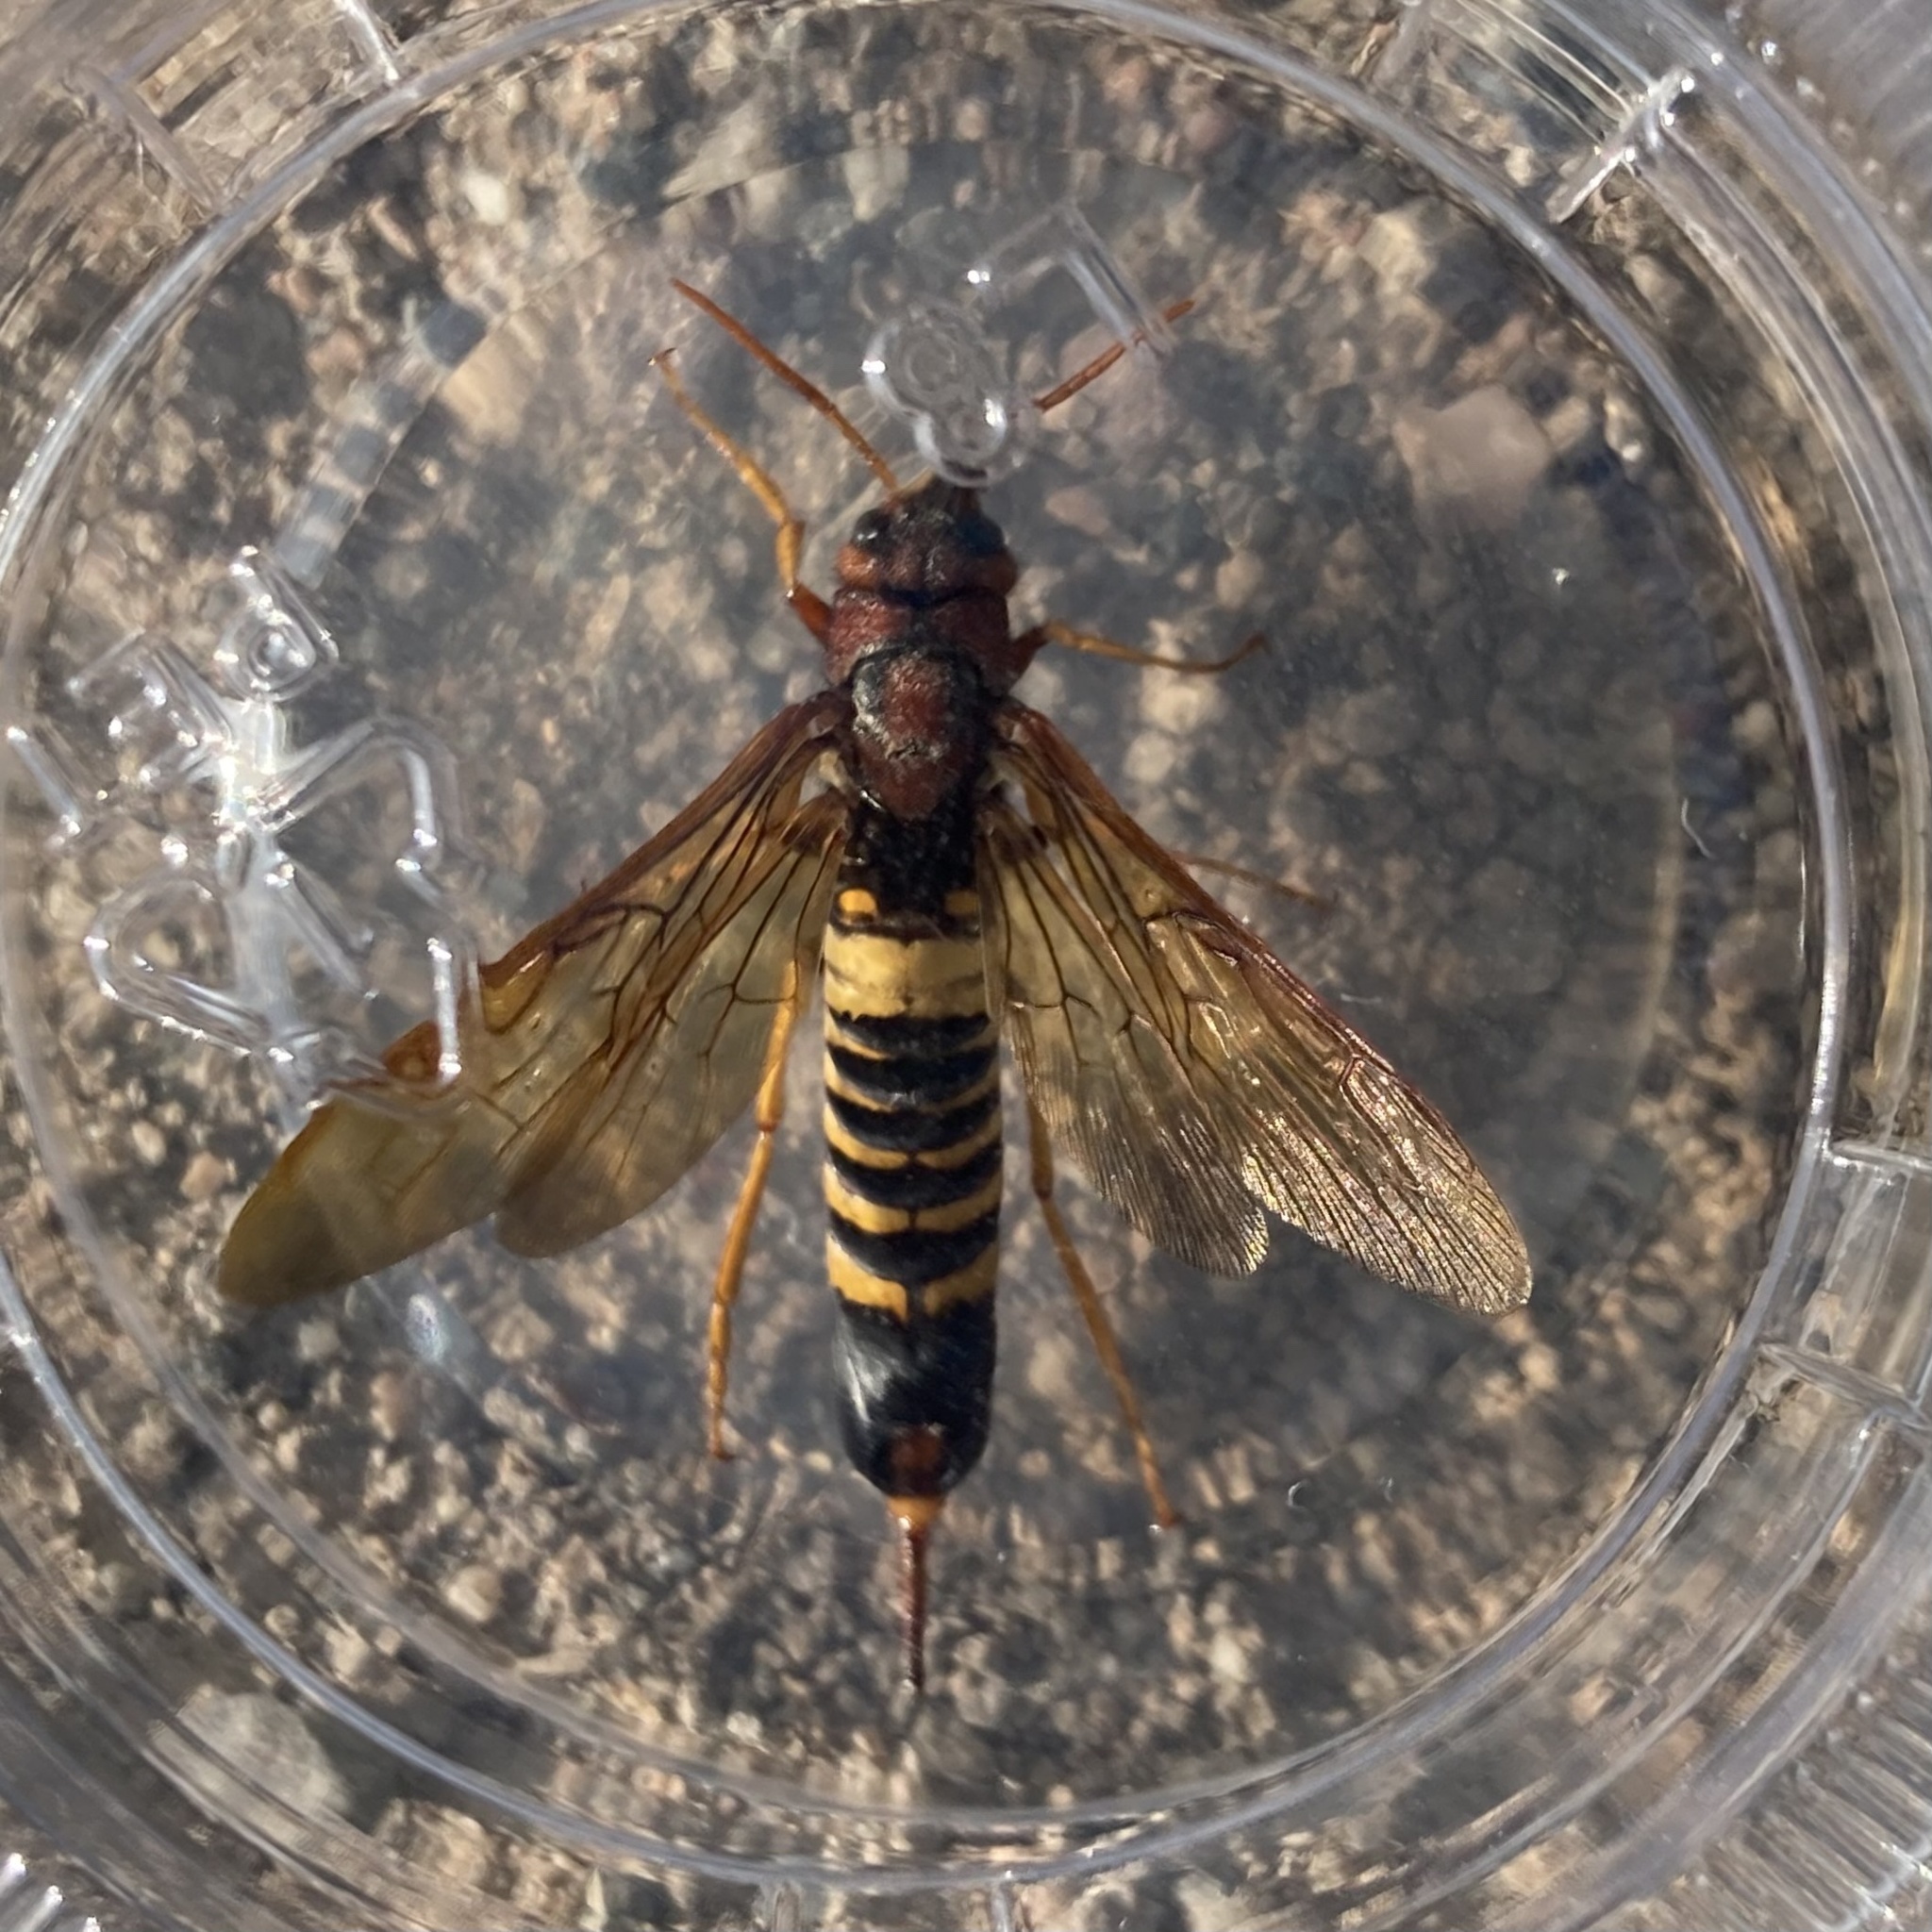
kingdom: Animalia
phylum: Arthropoda
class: Insecta
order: Hymenoptera
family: Siricidae
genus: Tremex
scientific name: Tremex columba
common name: Wasp
